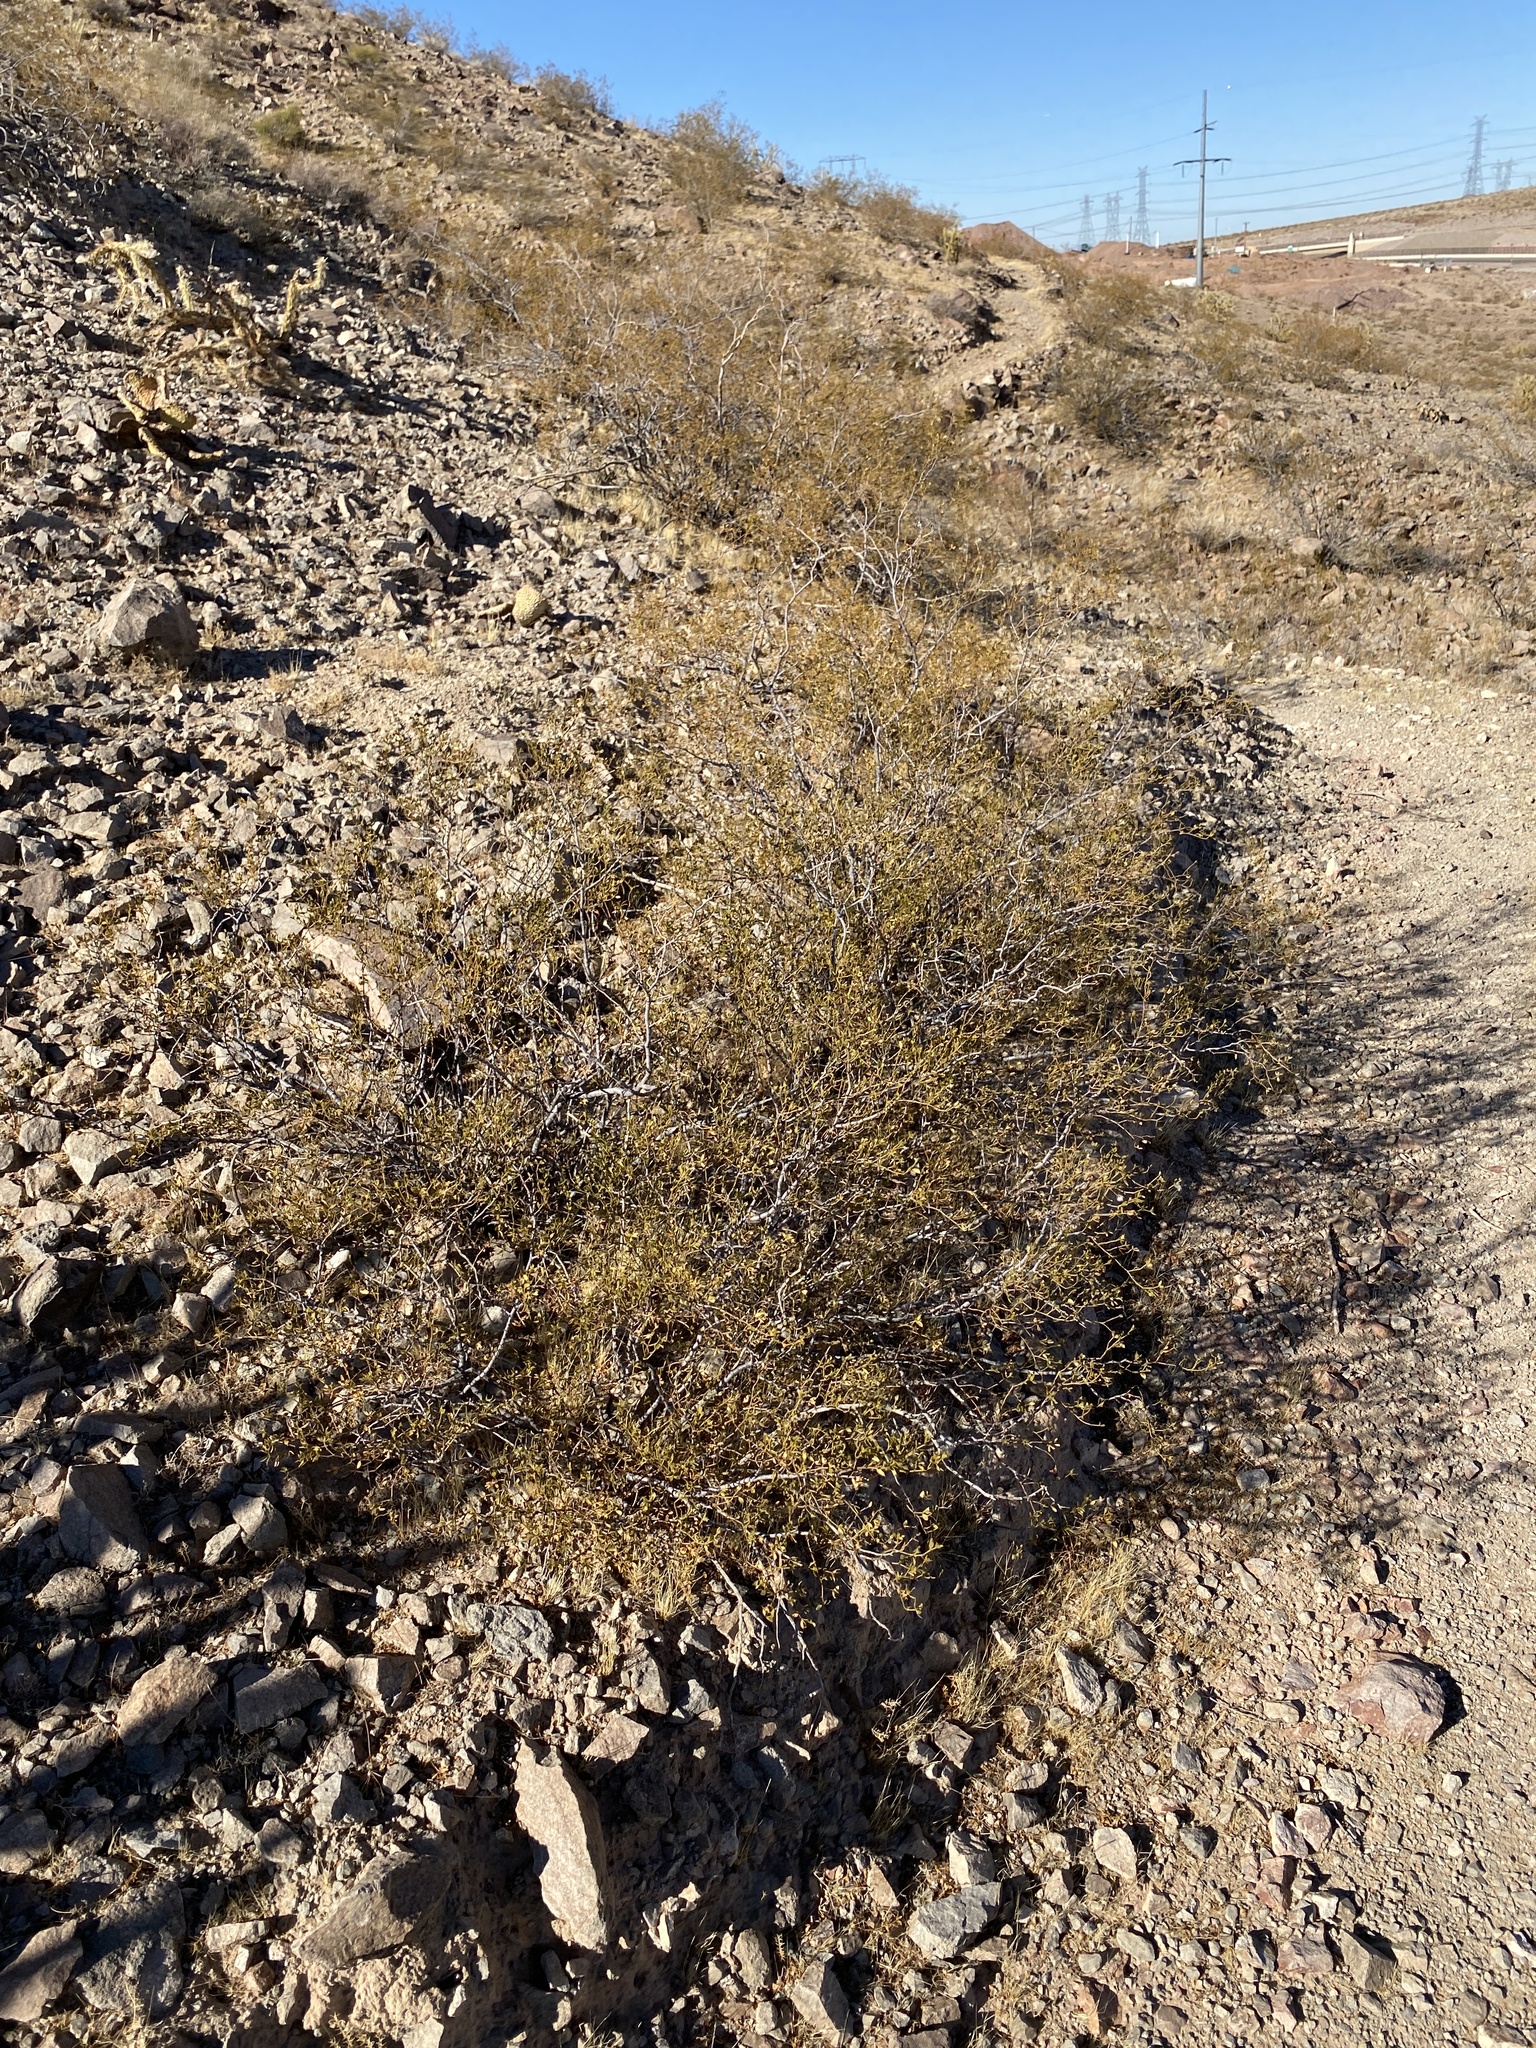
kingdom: Plantae
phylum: Tracheophyta
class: Magnoliopsida
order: Zygophyllales
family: Zygophyllaceae
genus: Larrea
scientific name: Larrea tridentata
